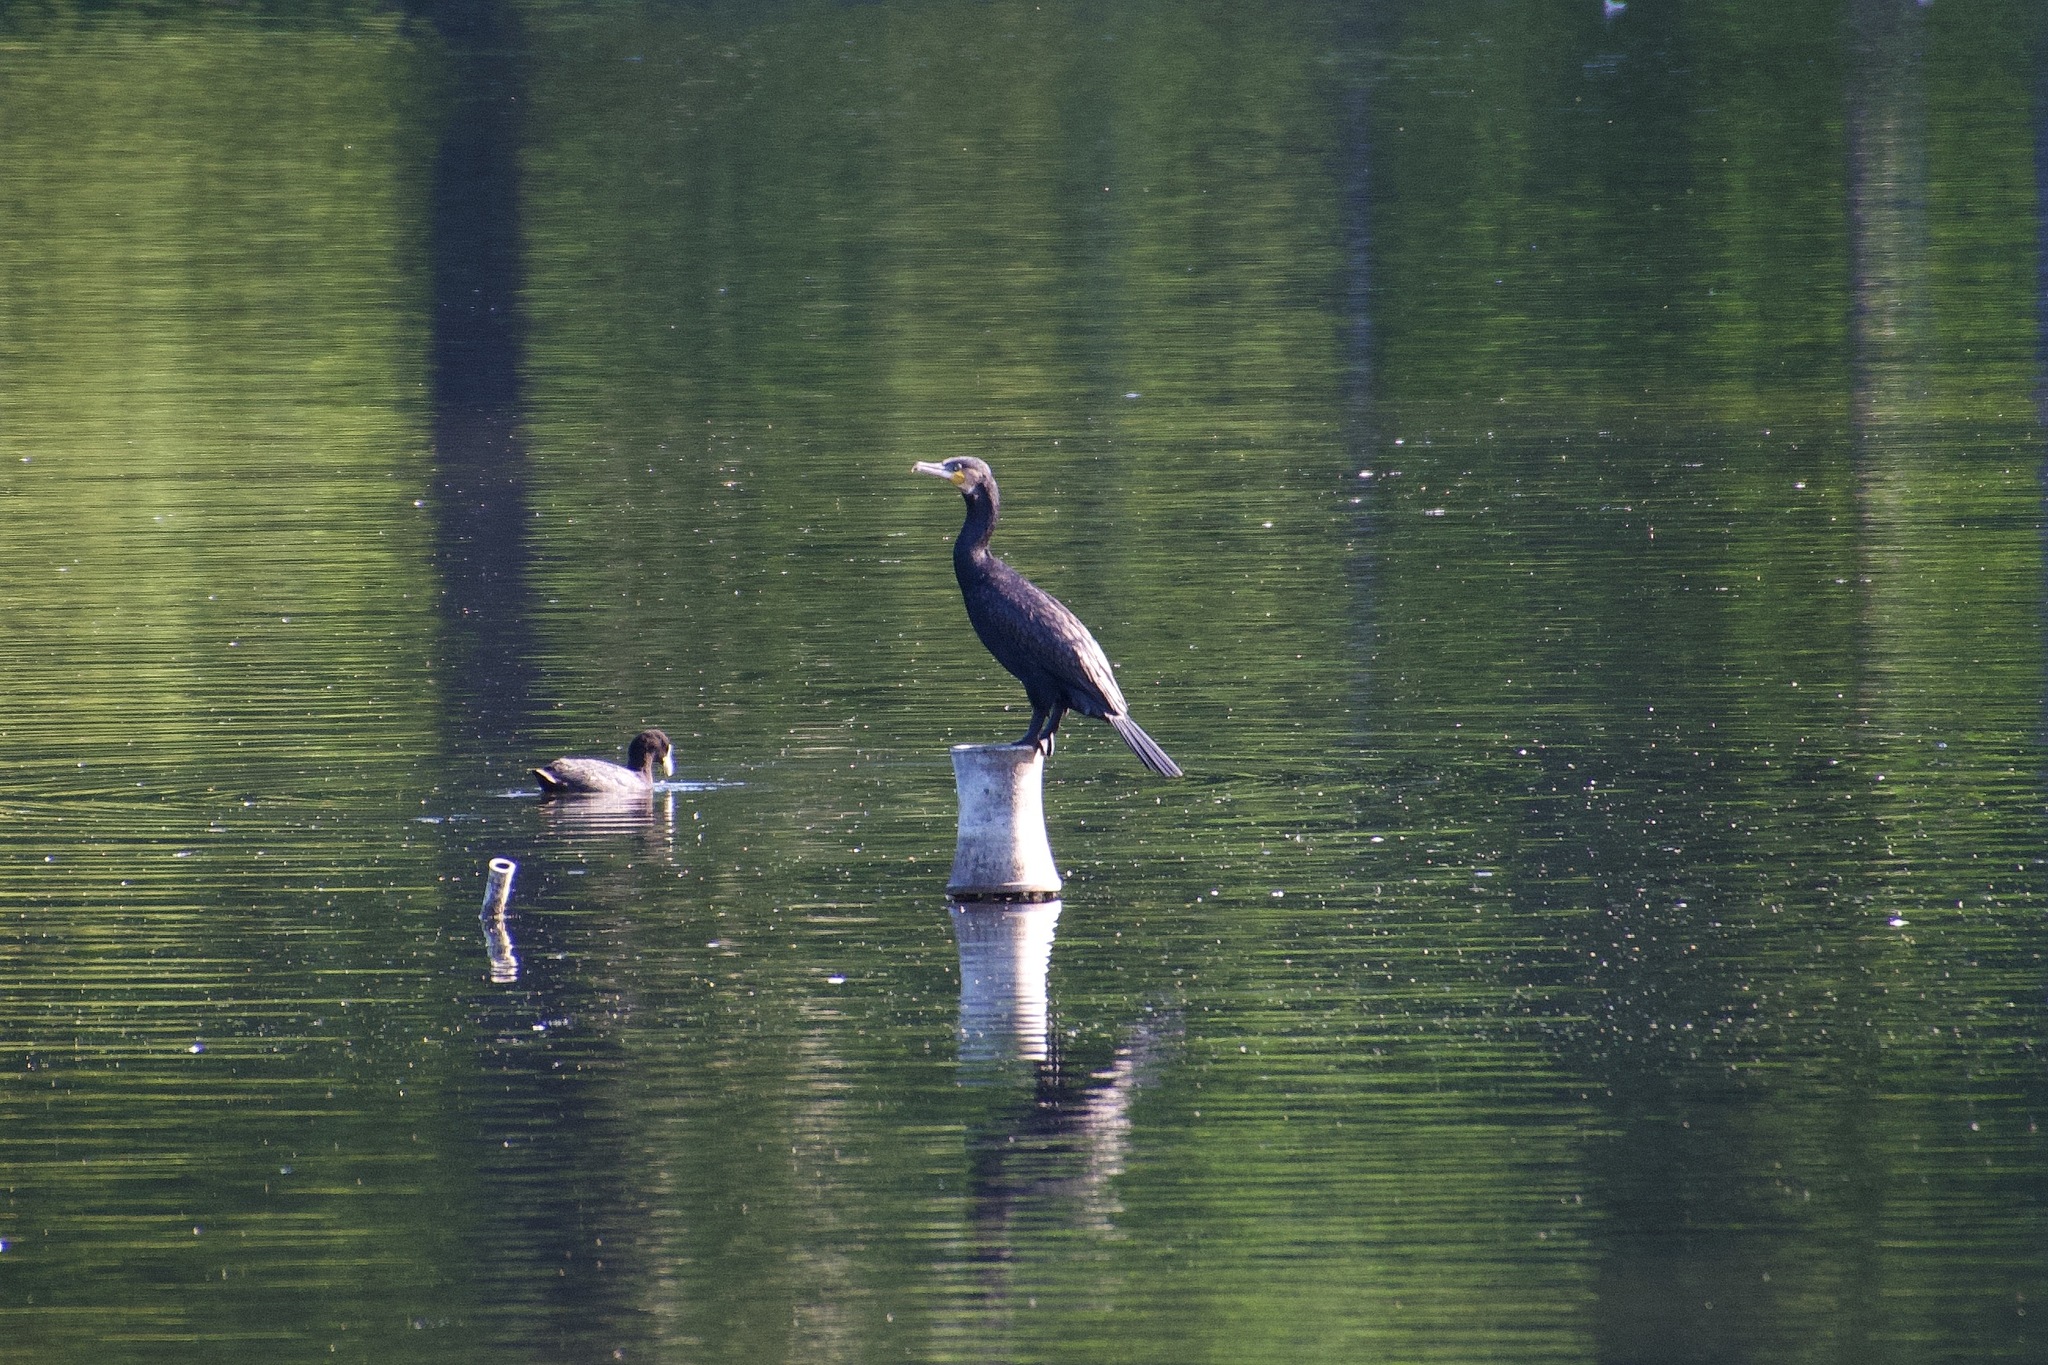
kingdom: Animalia
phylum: Chordata
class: Aves
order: Suliformes
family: Phalacrocoracidae
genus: Phalacrocorax
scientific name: Phalacrocorax carbo
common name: Great cormorant
